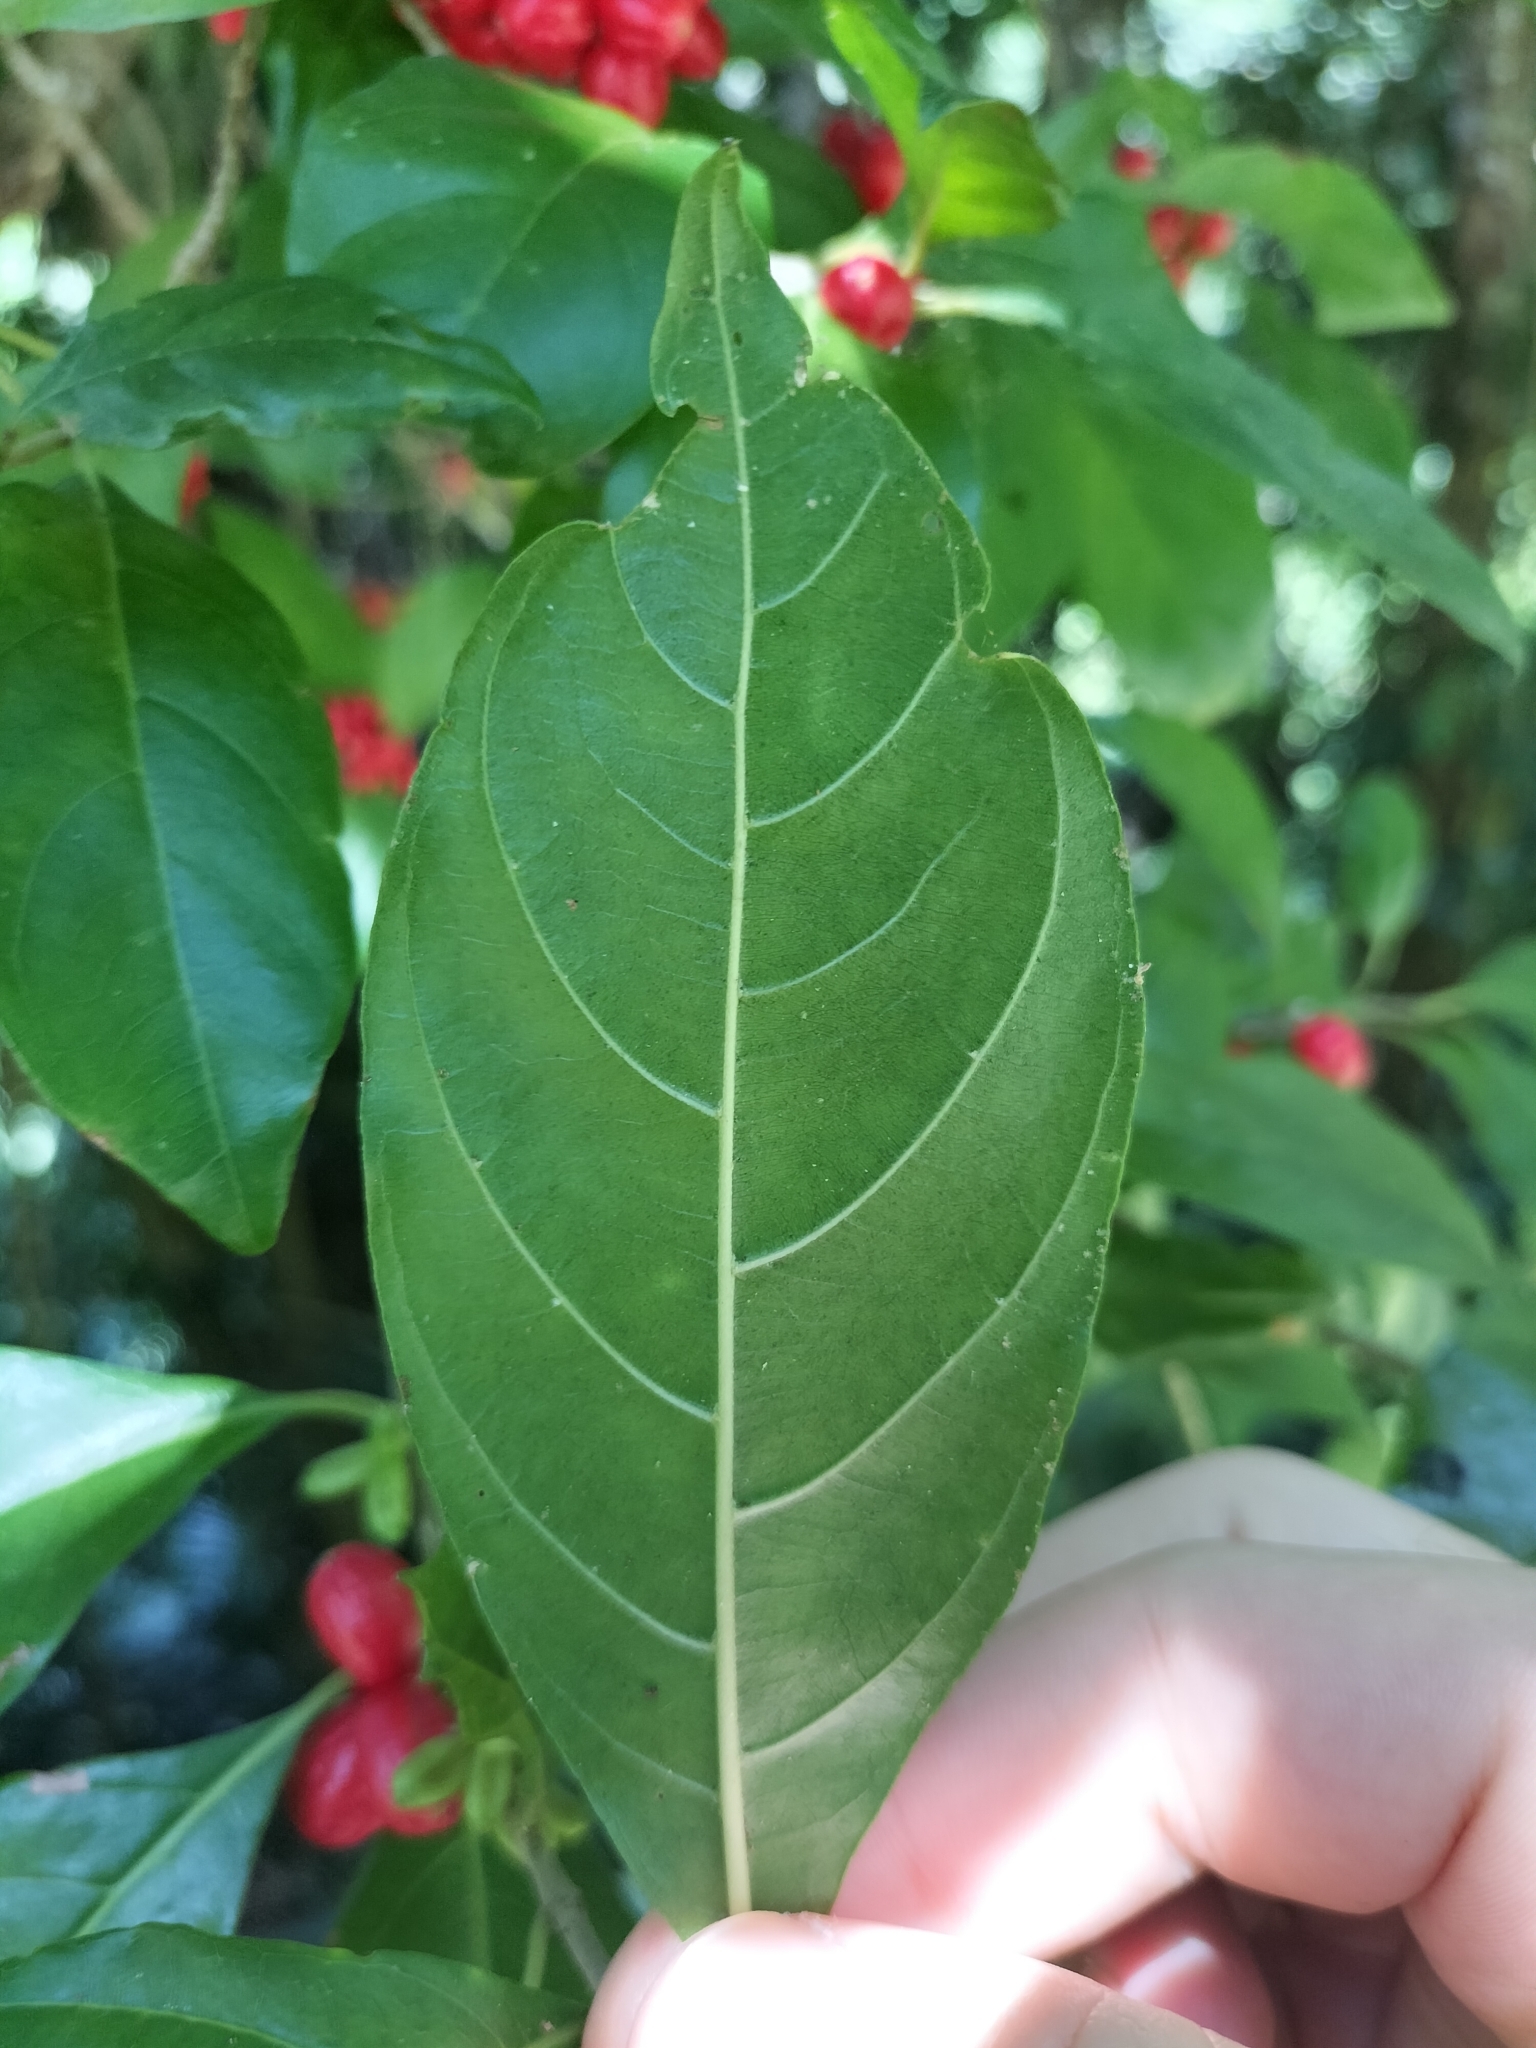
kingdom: Plantae
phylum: Tracheophyta
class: Magnoliopsida
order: Gentianales
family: Rubiaceae
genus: Antirhea
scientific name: Antirhea tenuiflora
